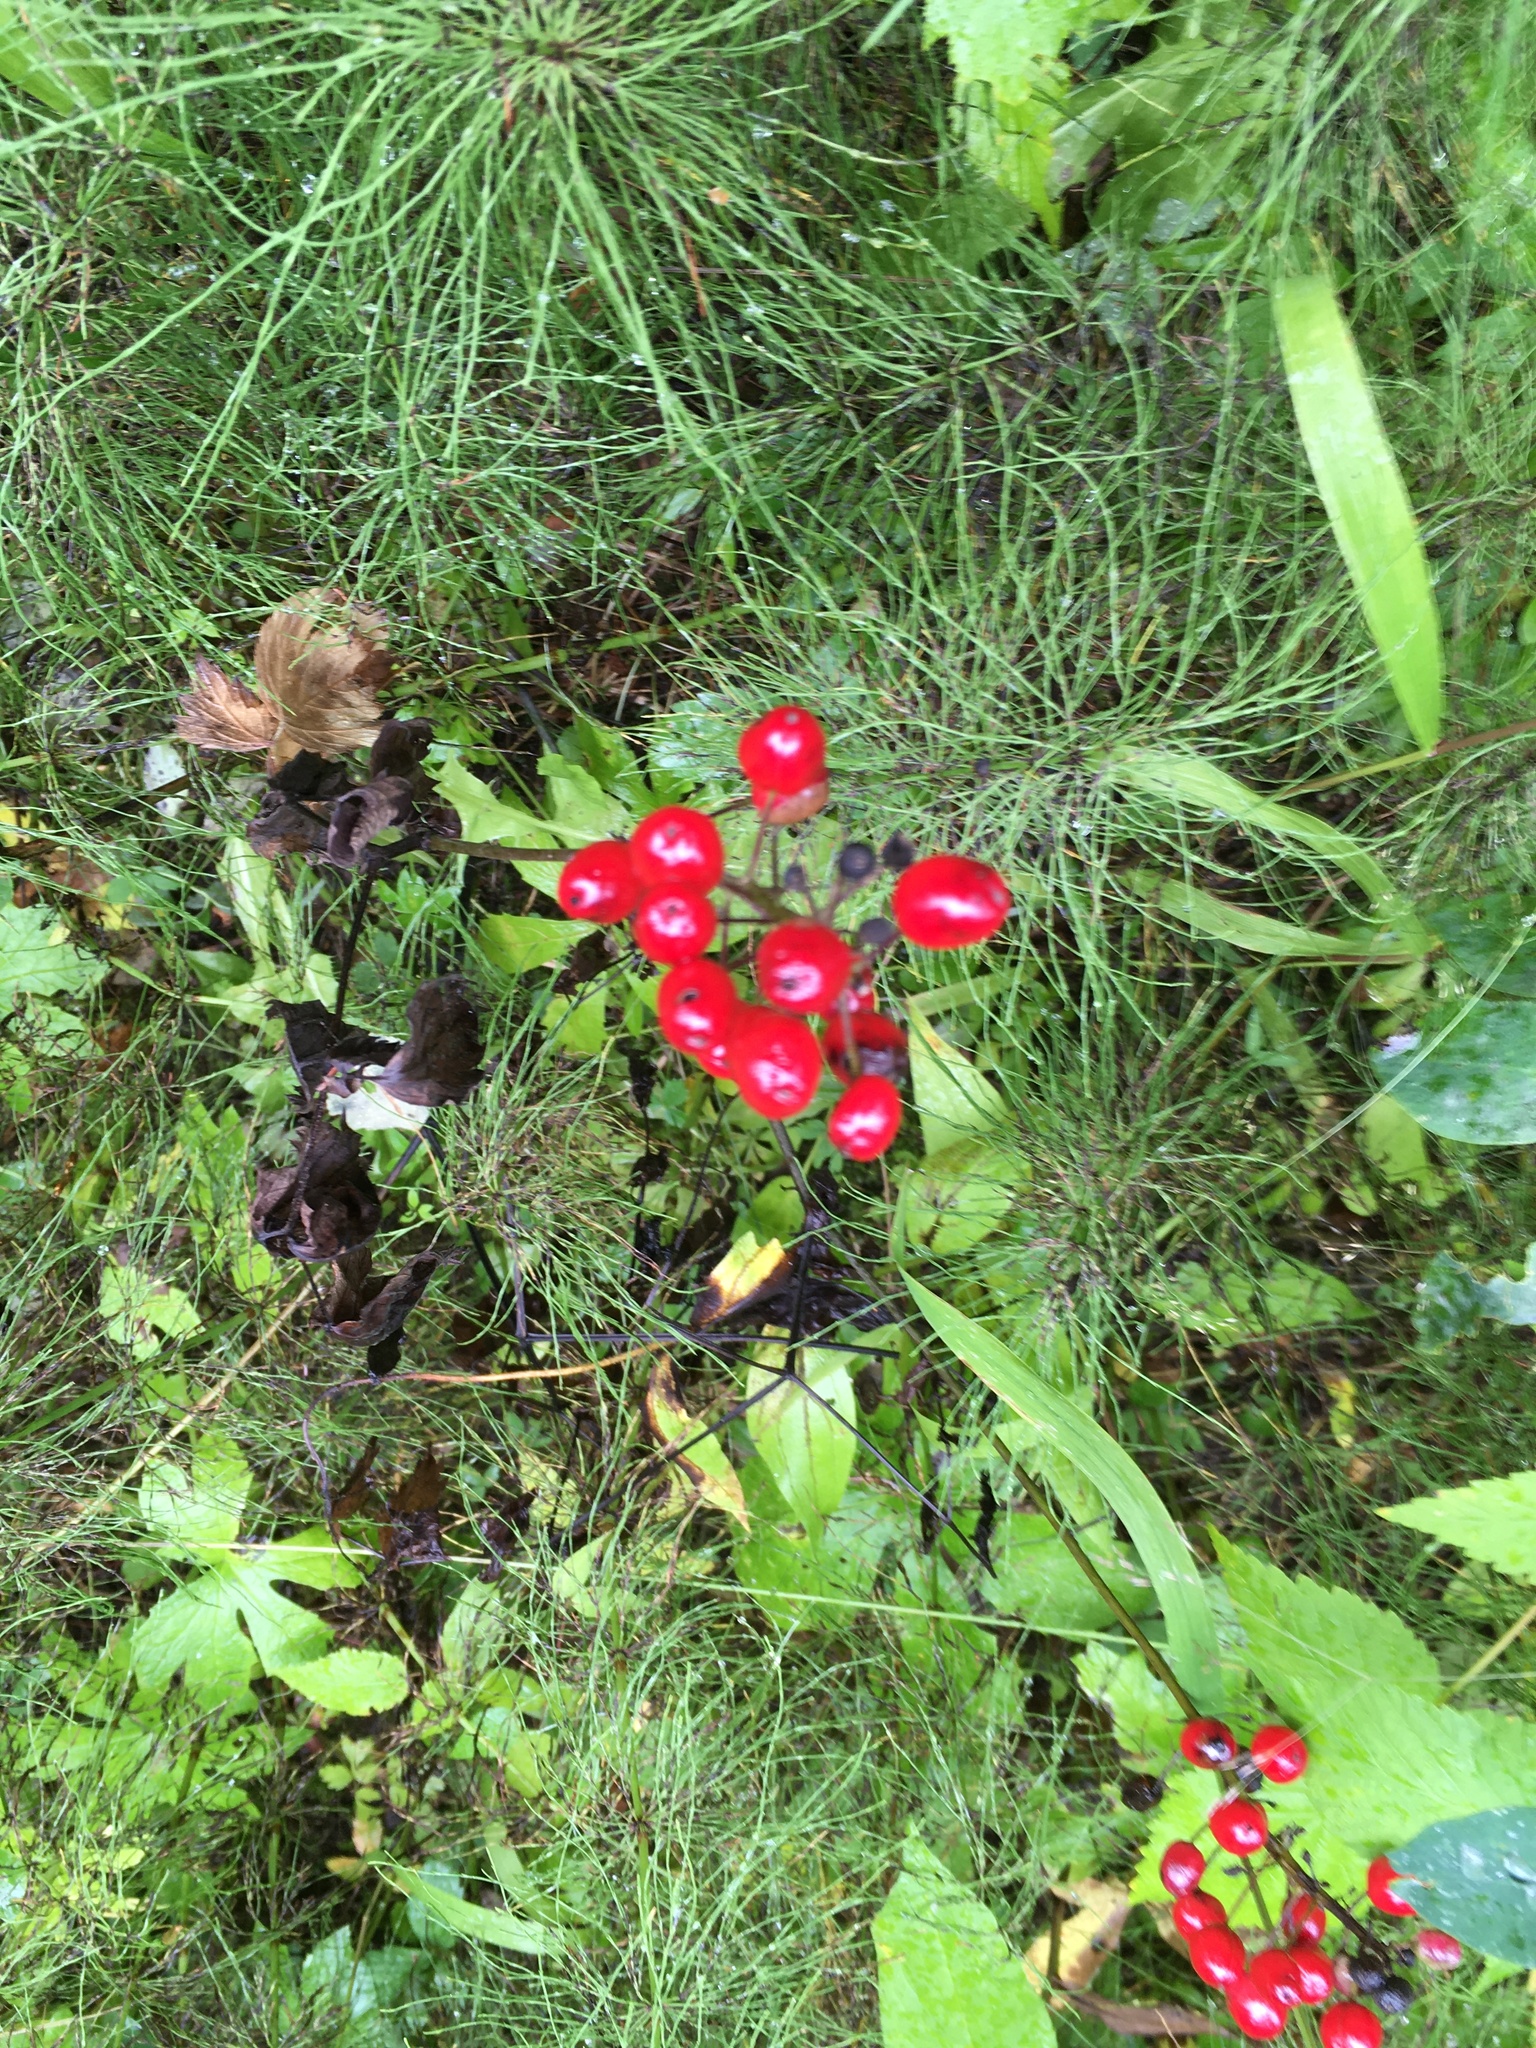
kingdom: Plantae
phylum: Tracheophyta
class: Magnoliopsida
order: Ranunculales
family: Ranunculaceae
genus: Actaea
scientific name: Actaea rubra
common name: Red baneberry
